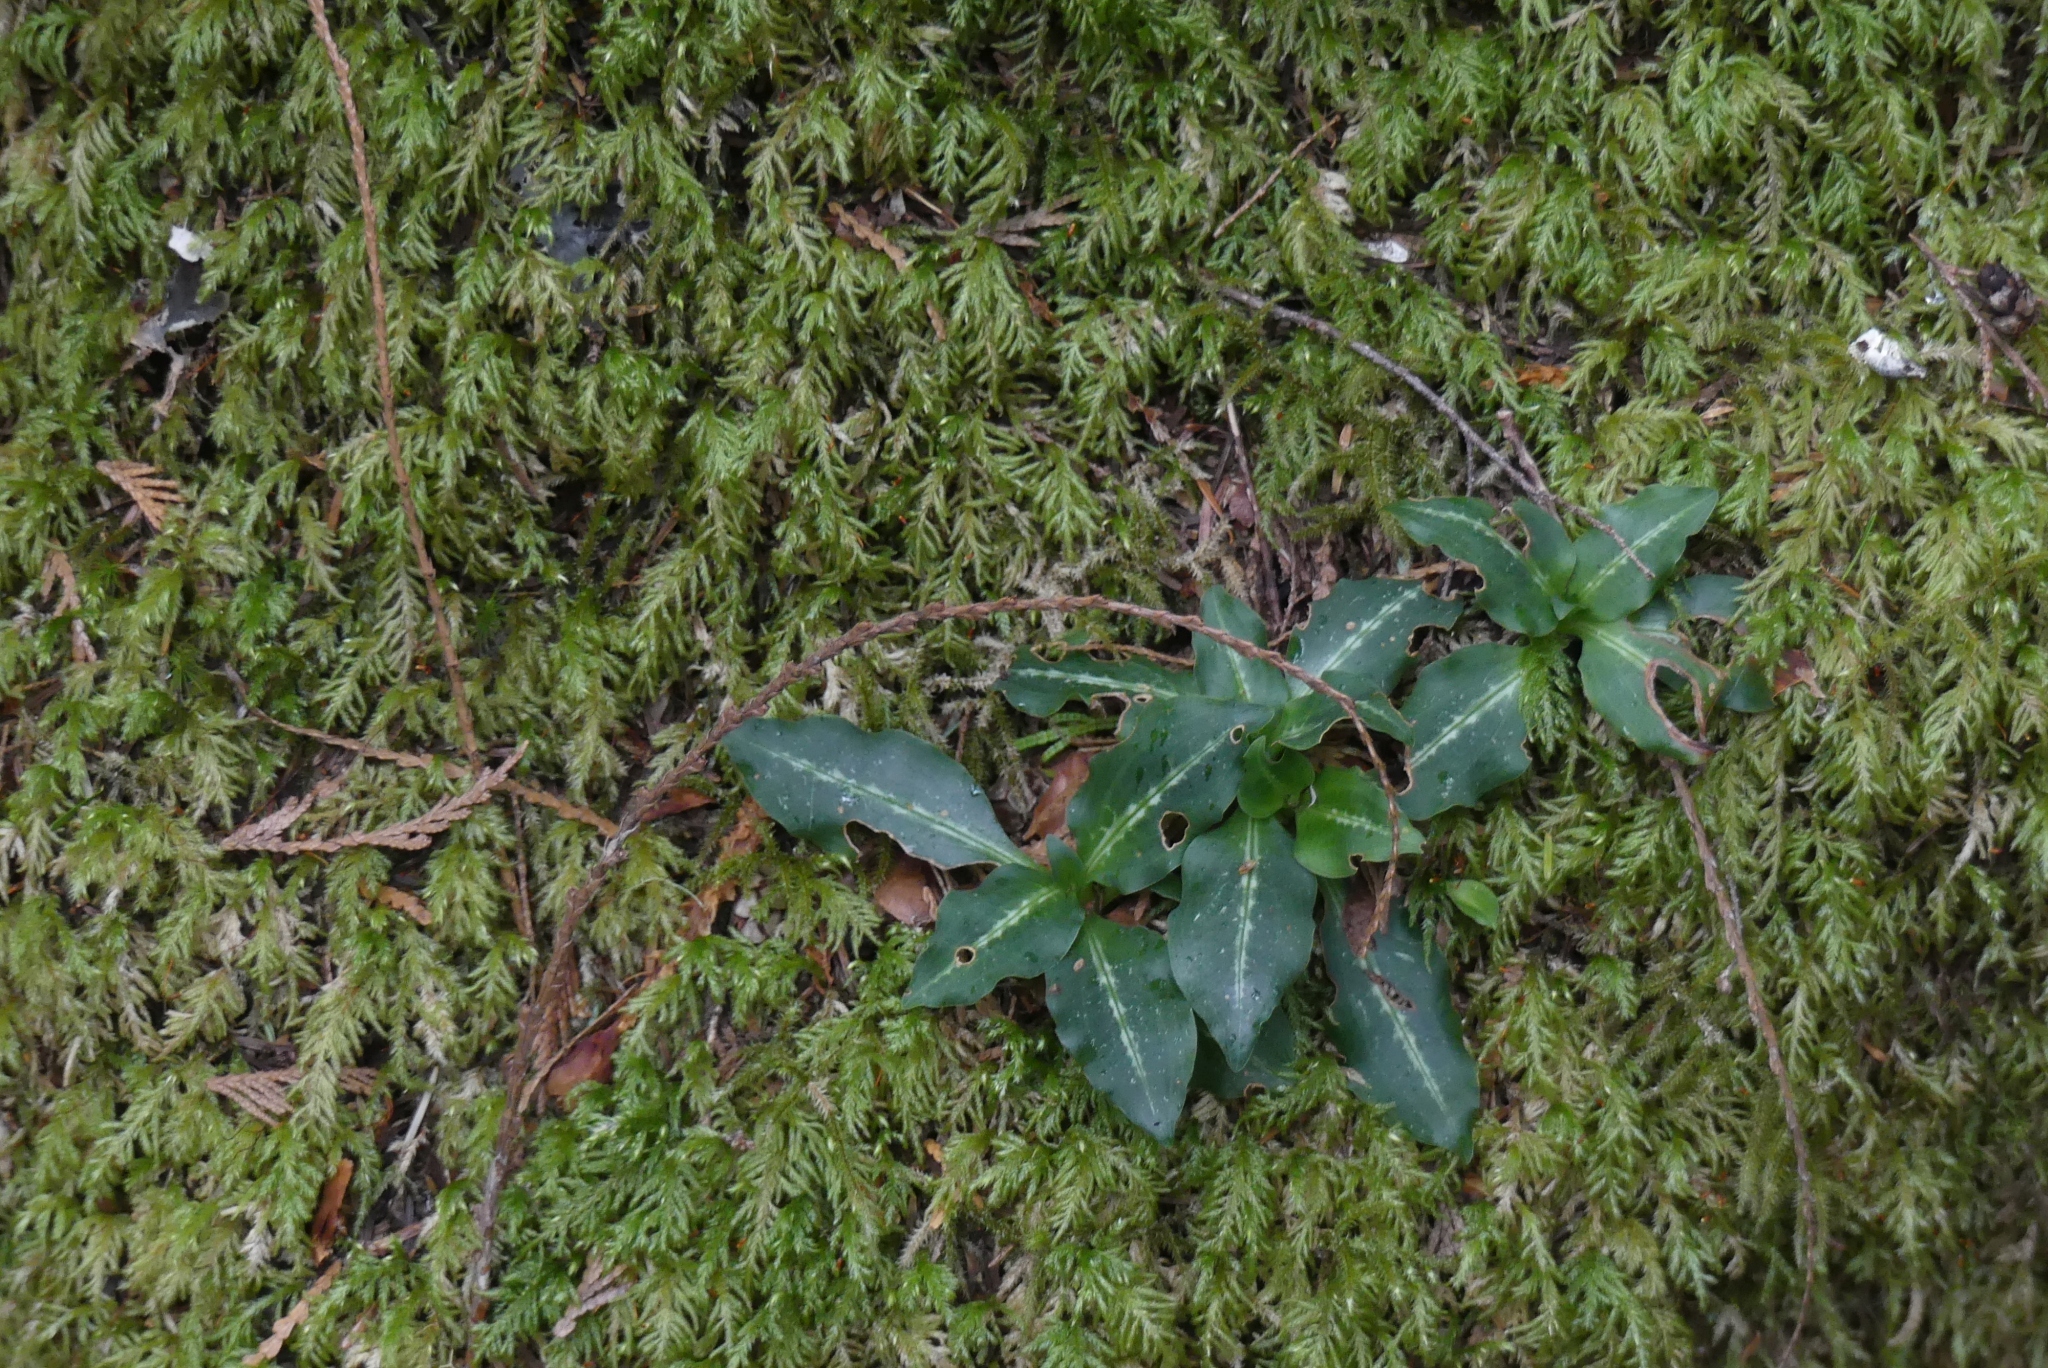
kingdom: Plantae
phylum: Tracheophyta
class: Liliopsida
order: Asparagales
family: Orchidaceae
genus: Goodyera
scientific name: Goodyera oblongifolia
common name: Giant rattlesnake-plantain
